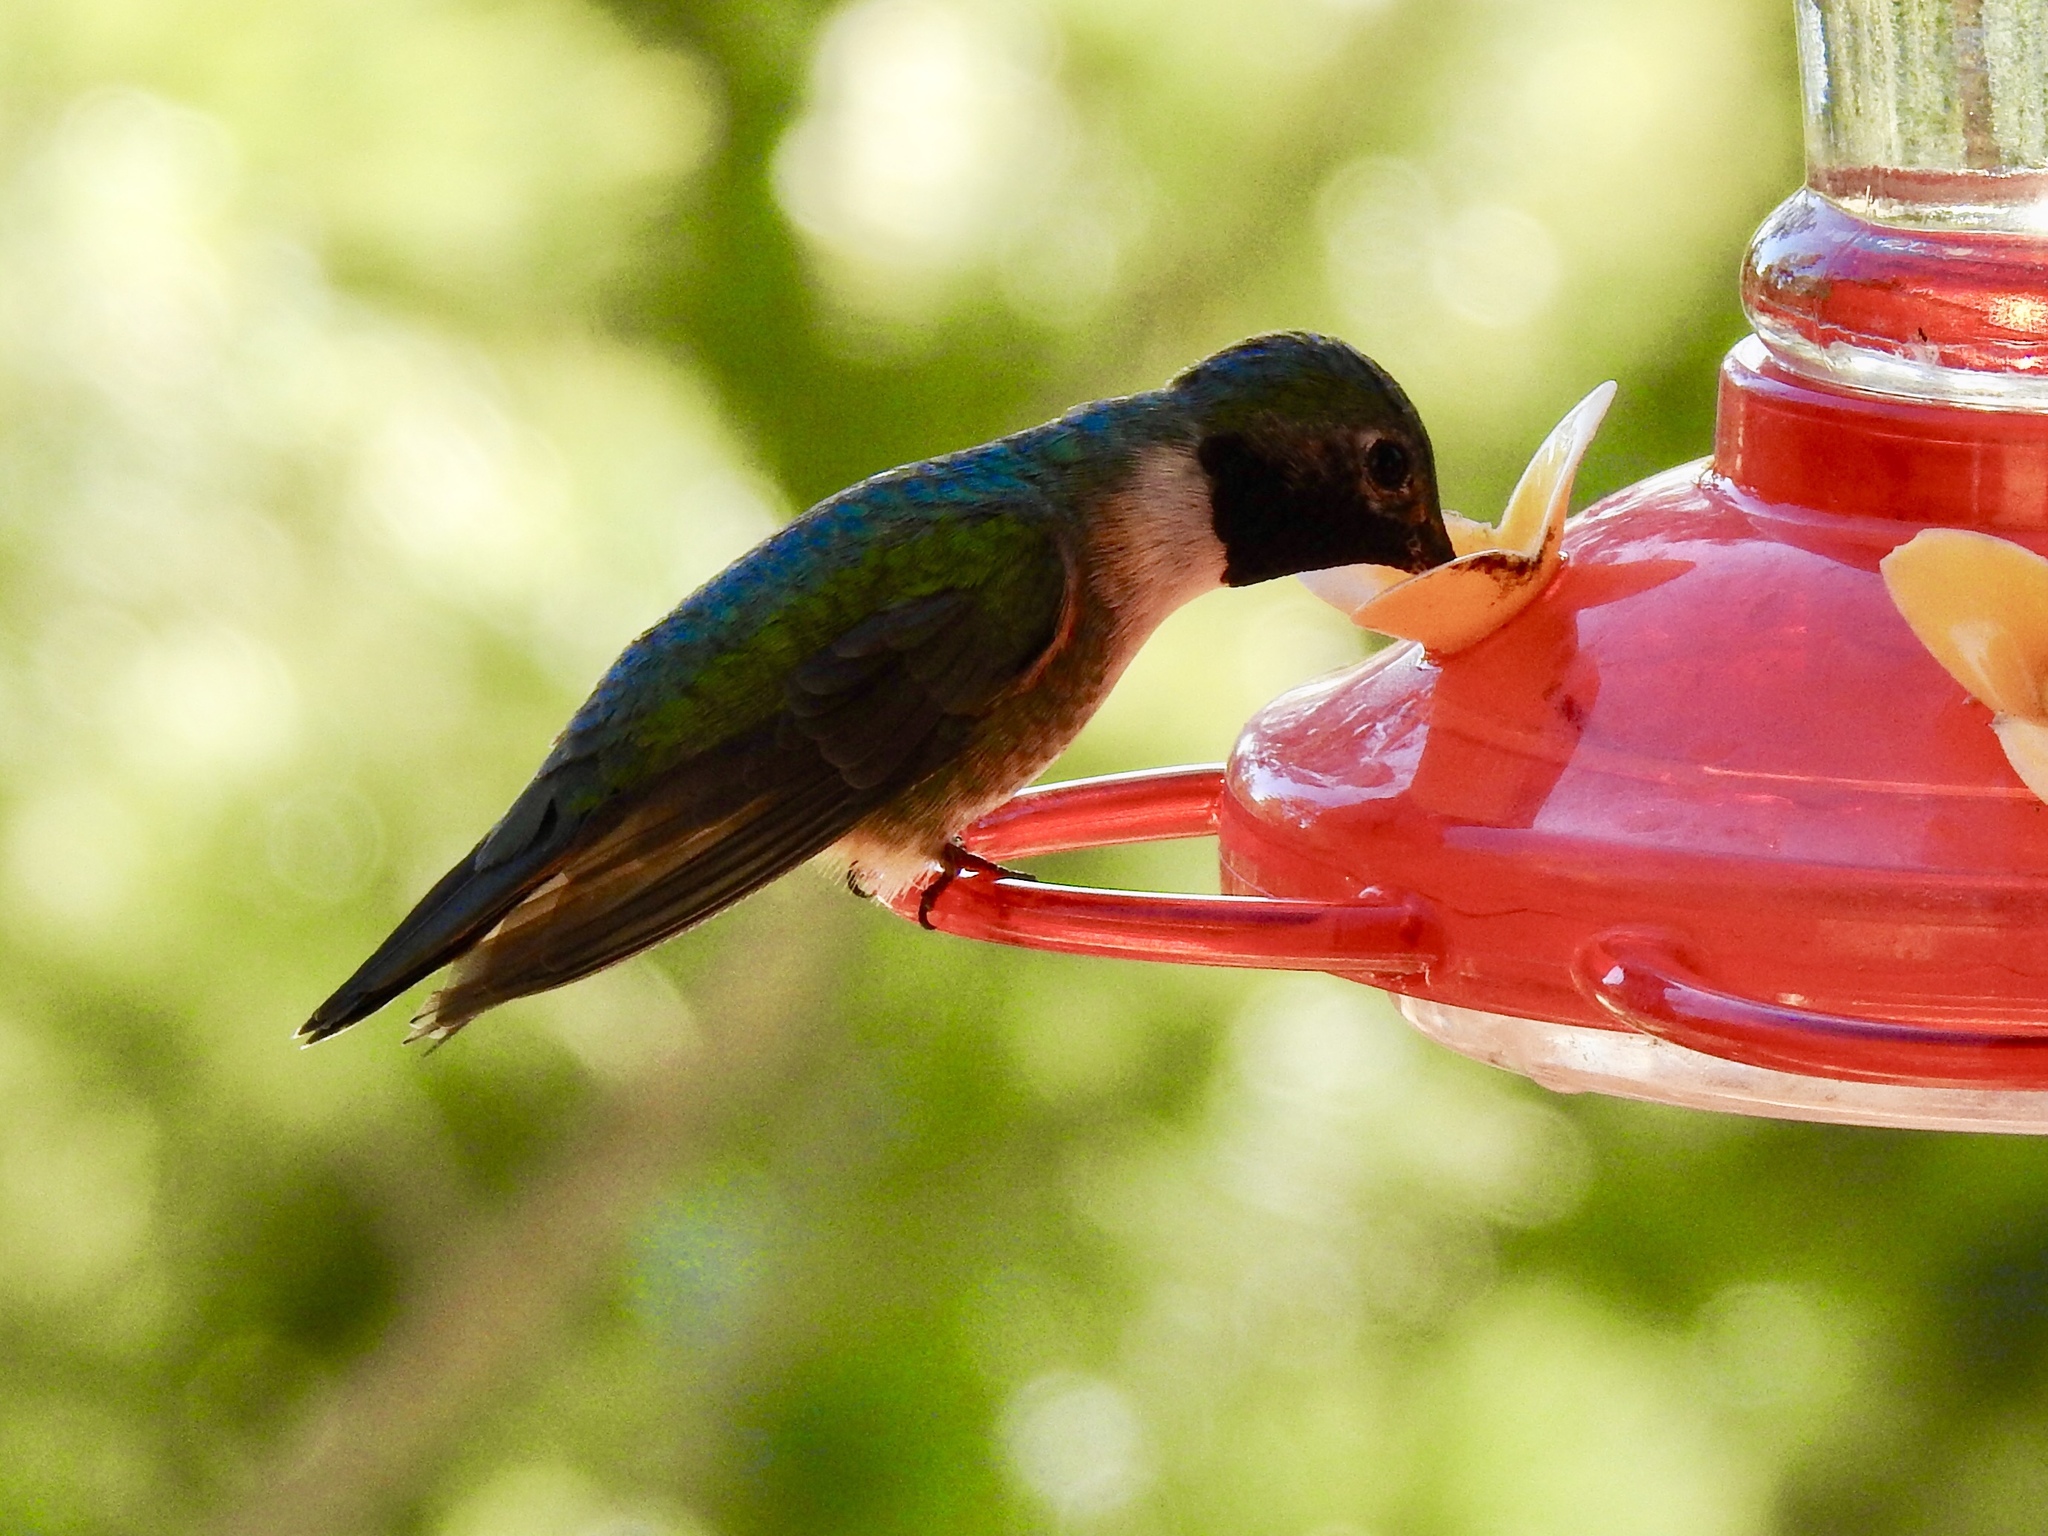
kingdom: Animalia
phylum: Chordata
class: Aves
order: Apodiformes
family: Trochilidae
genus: Selasphorus
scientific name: Selasphorus platycercus
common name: Broad-tailed hummingbird
